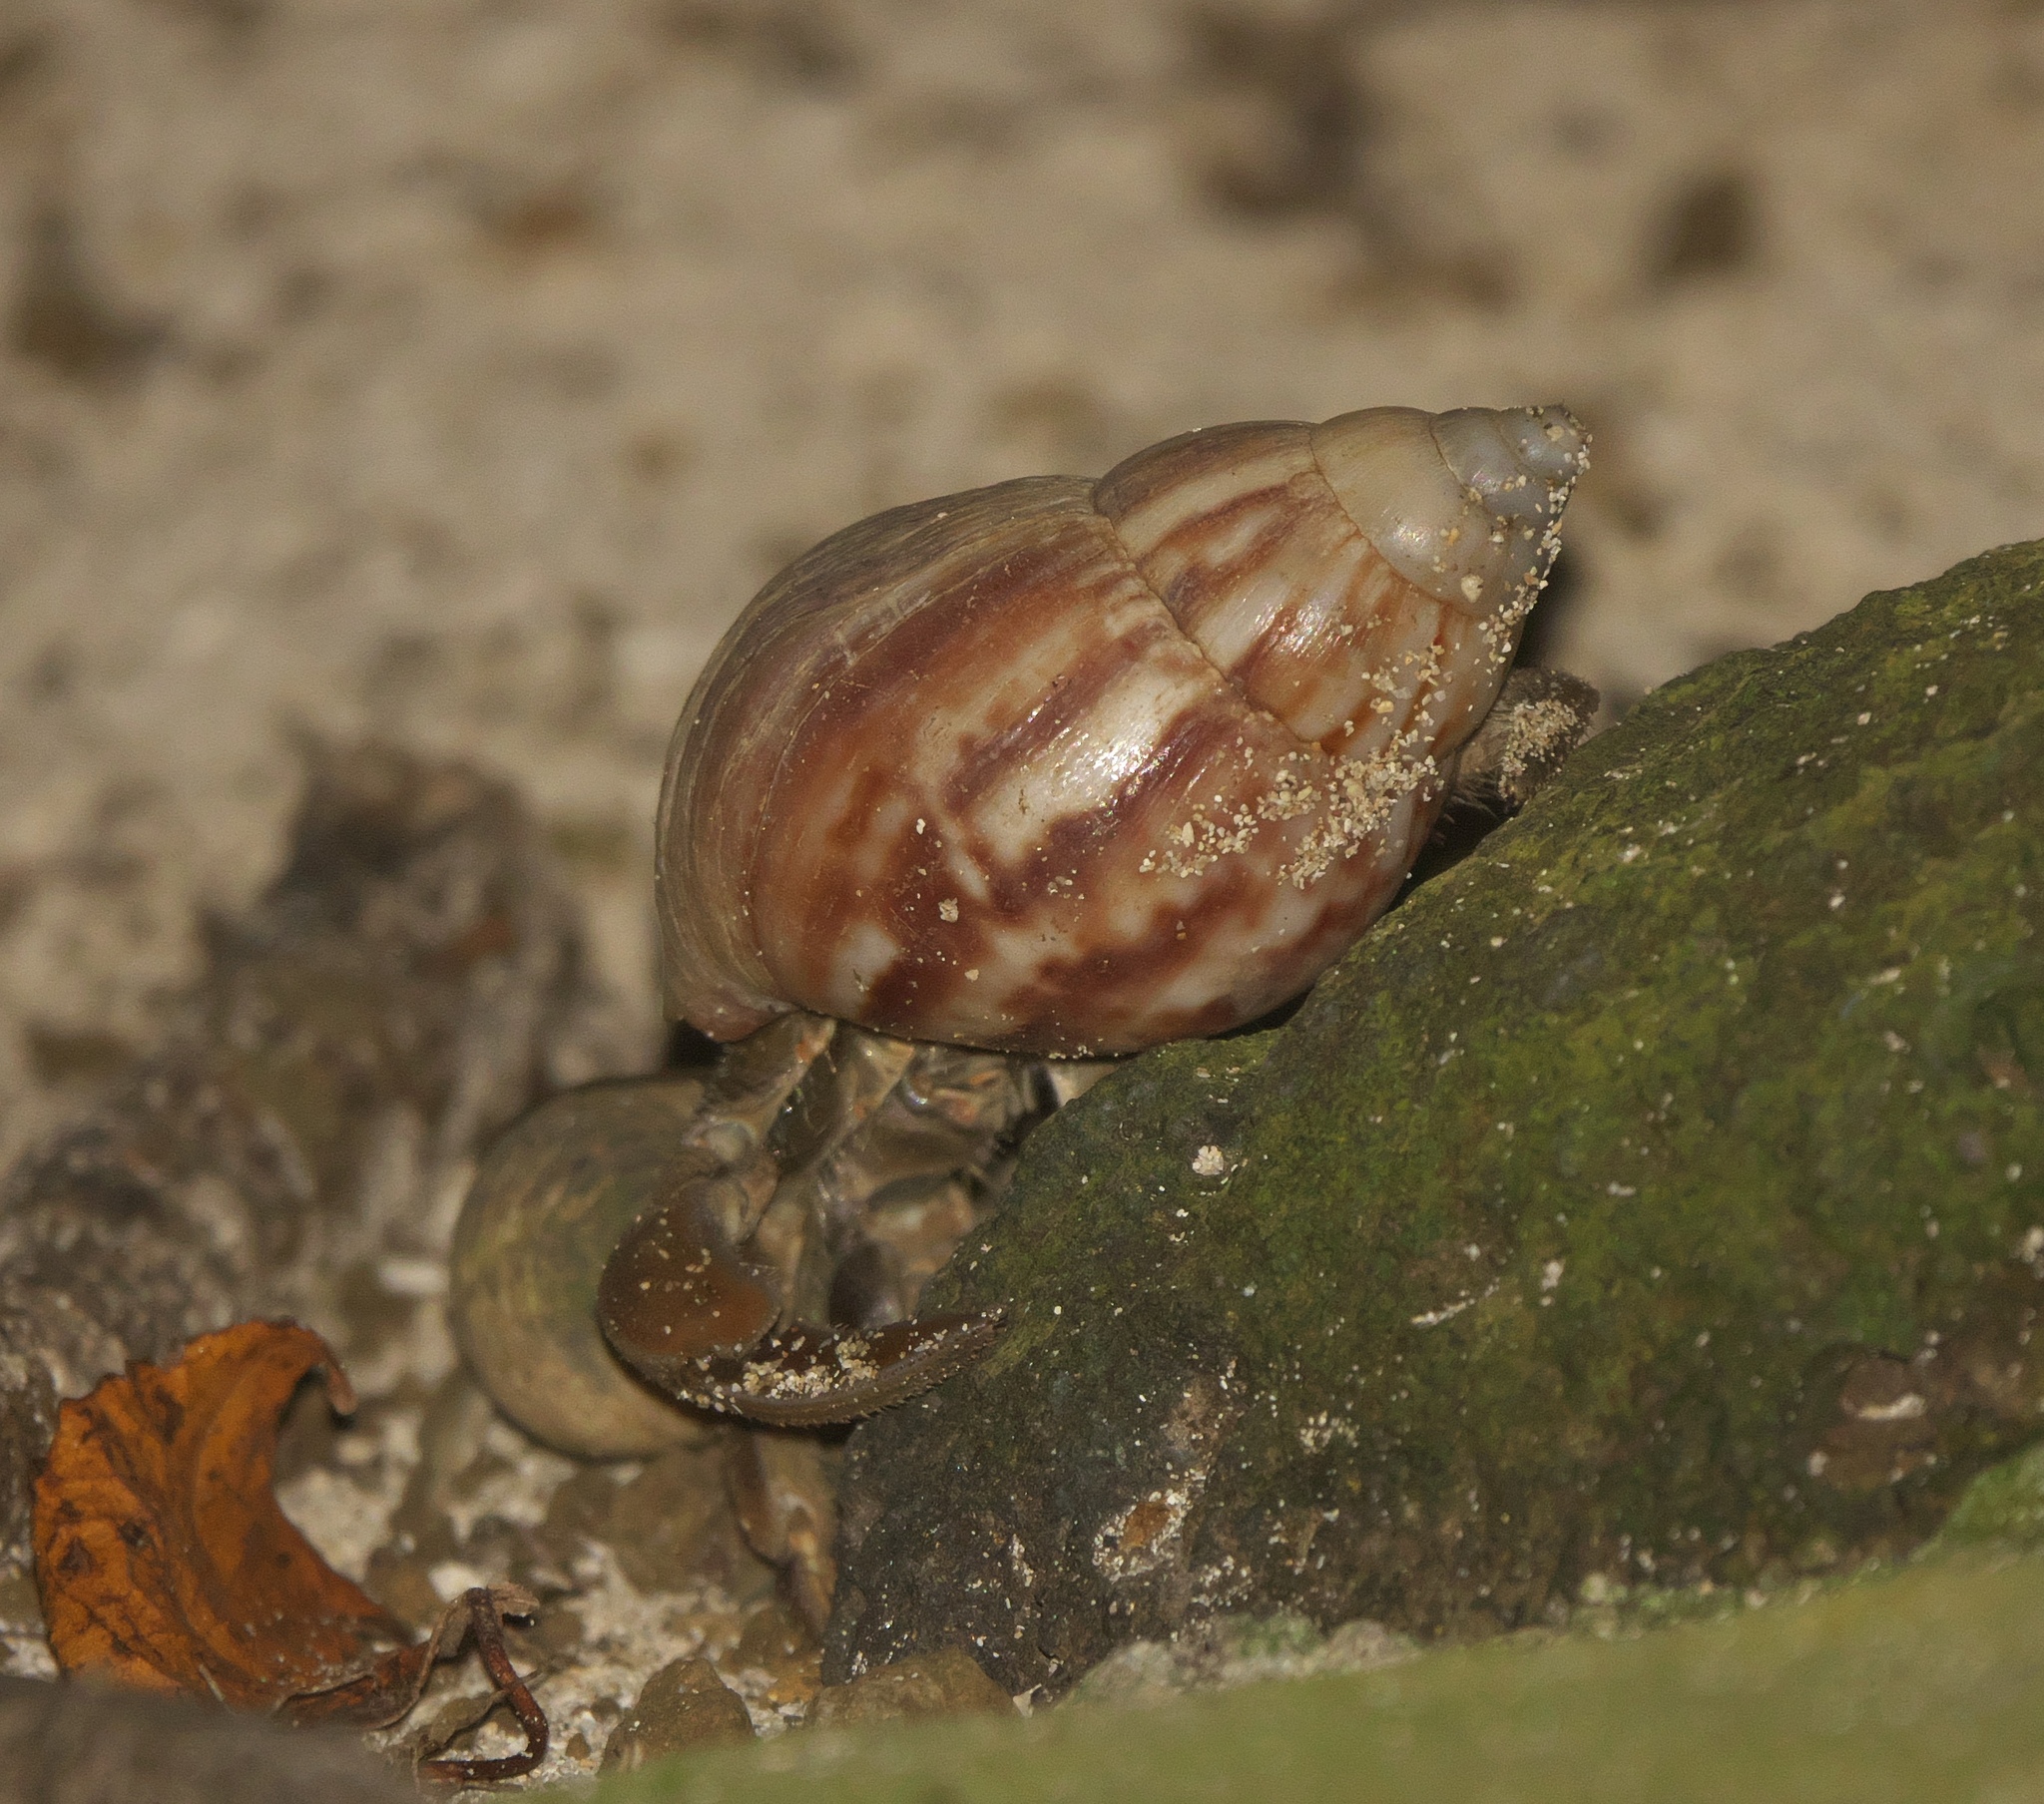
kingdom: Animalia
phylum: Arthropoda
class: Malacostraca
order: Decapoda
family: Coenobitidae
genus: Coenobita
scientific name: Coenobita rugosus
